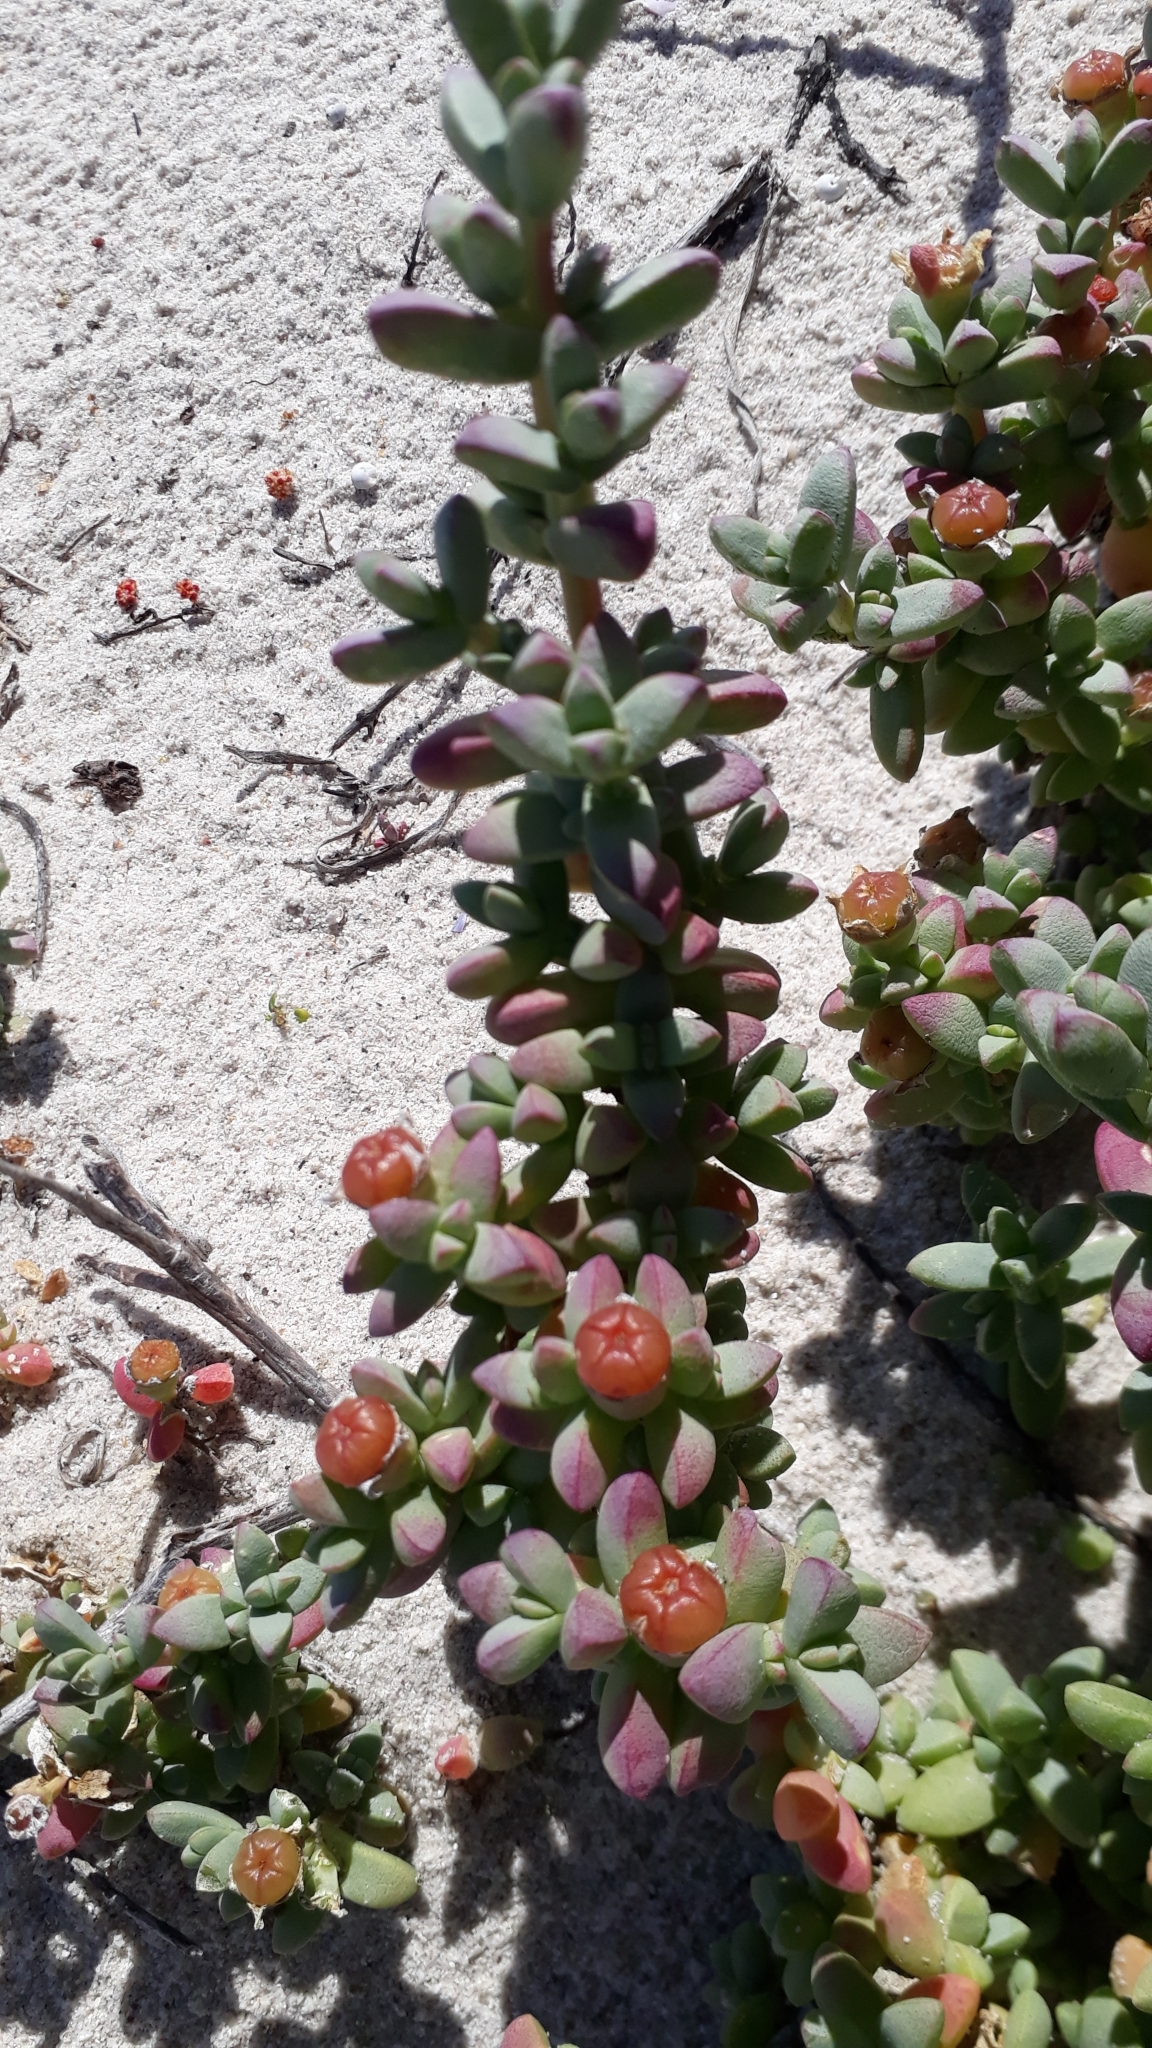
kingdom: Plantae
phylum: Tracheophyta
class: Magnoliopsida
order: Caryophyllales
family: Aizoaceae
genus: Amphibolia
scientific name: Amphibolia laevis
